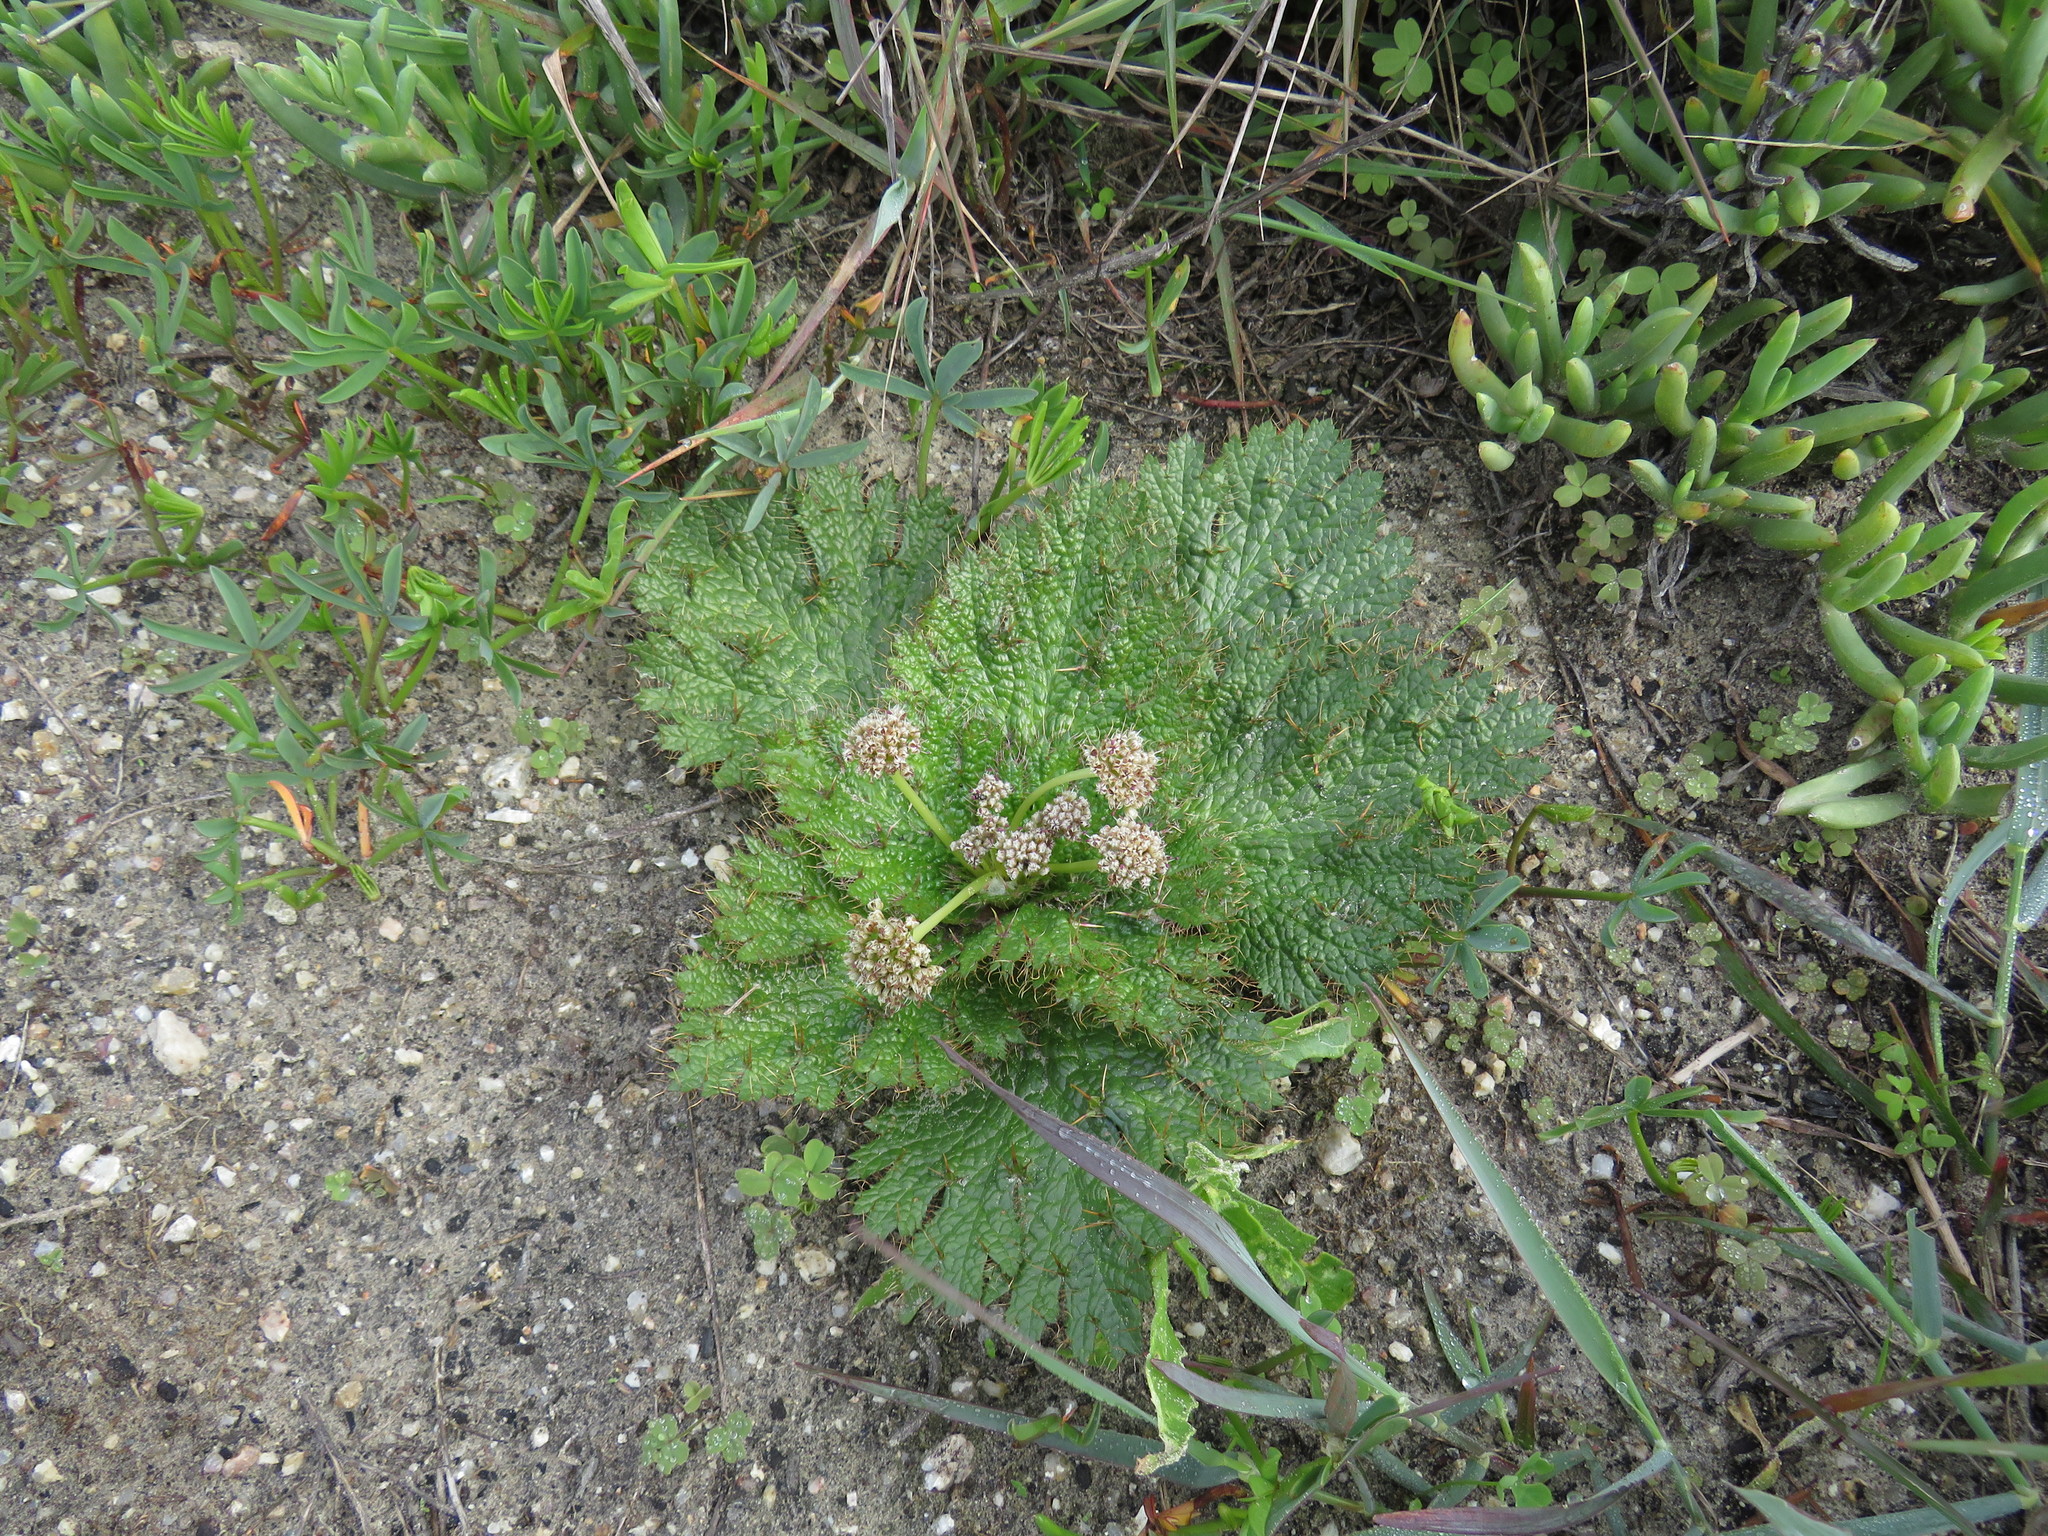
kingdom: Plantae
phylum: Tracheophyta
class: Magnoliopsida
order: Apiales
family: Apiaceae
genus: Arctopus
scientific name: Arctopus echinatus
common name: Platdoring
